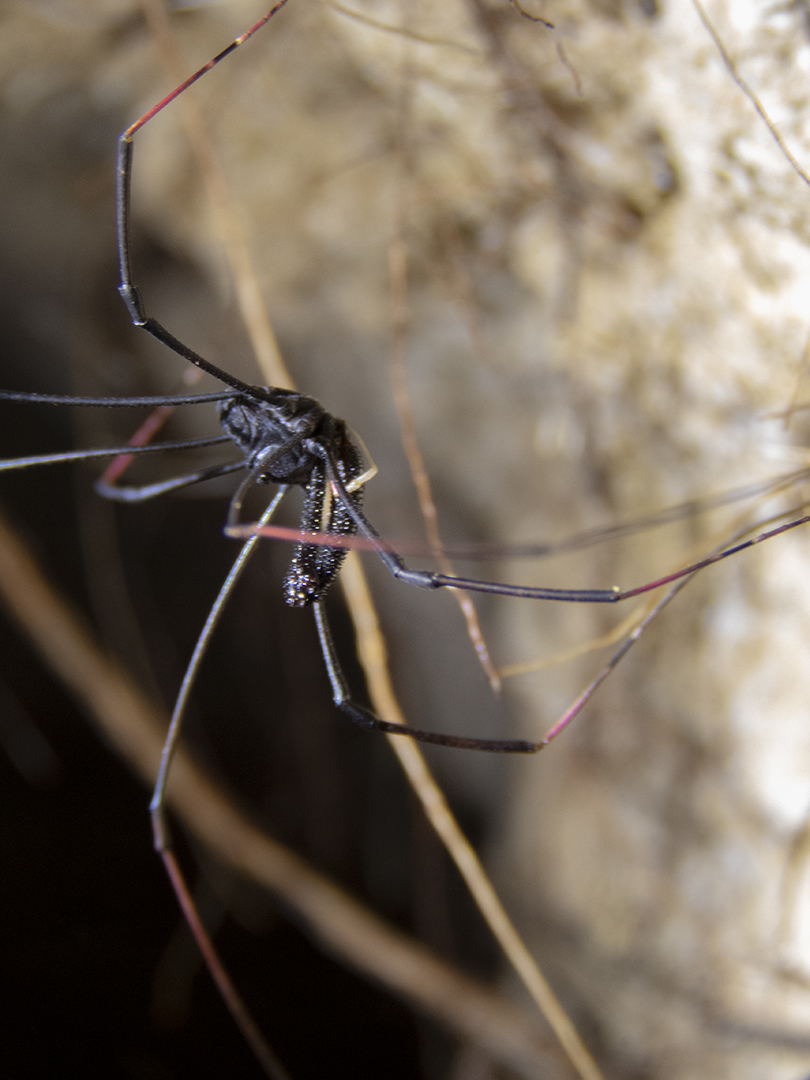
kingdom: Animalia
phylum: Arthropoda
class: Arachnida
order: Opiliones
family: Neopilionidae
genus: Forsteropsalis
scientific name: Forsteropsalis inconstans
